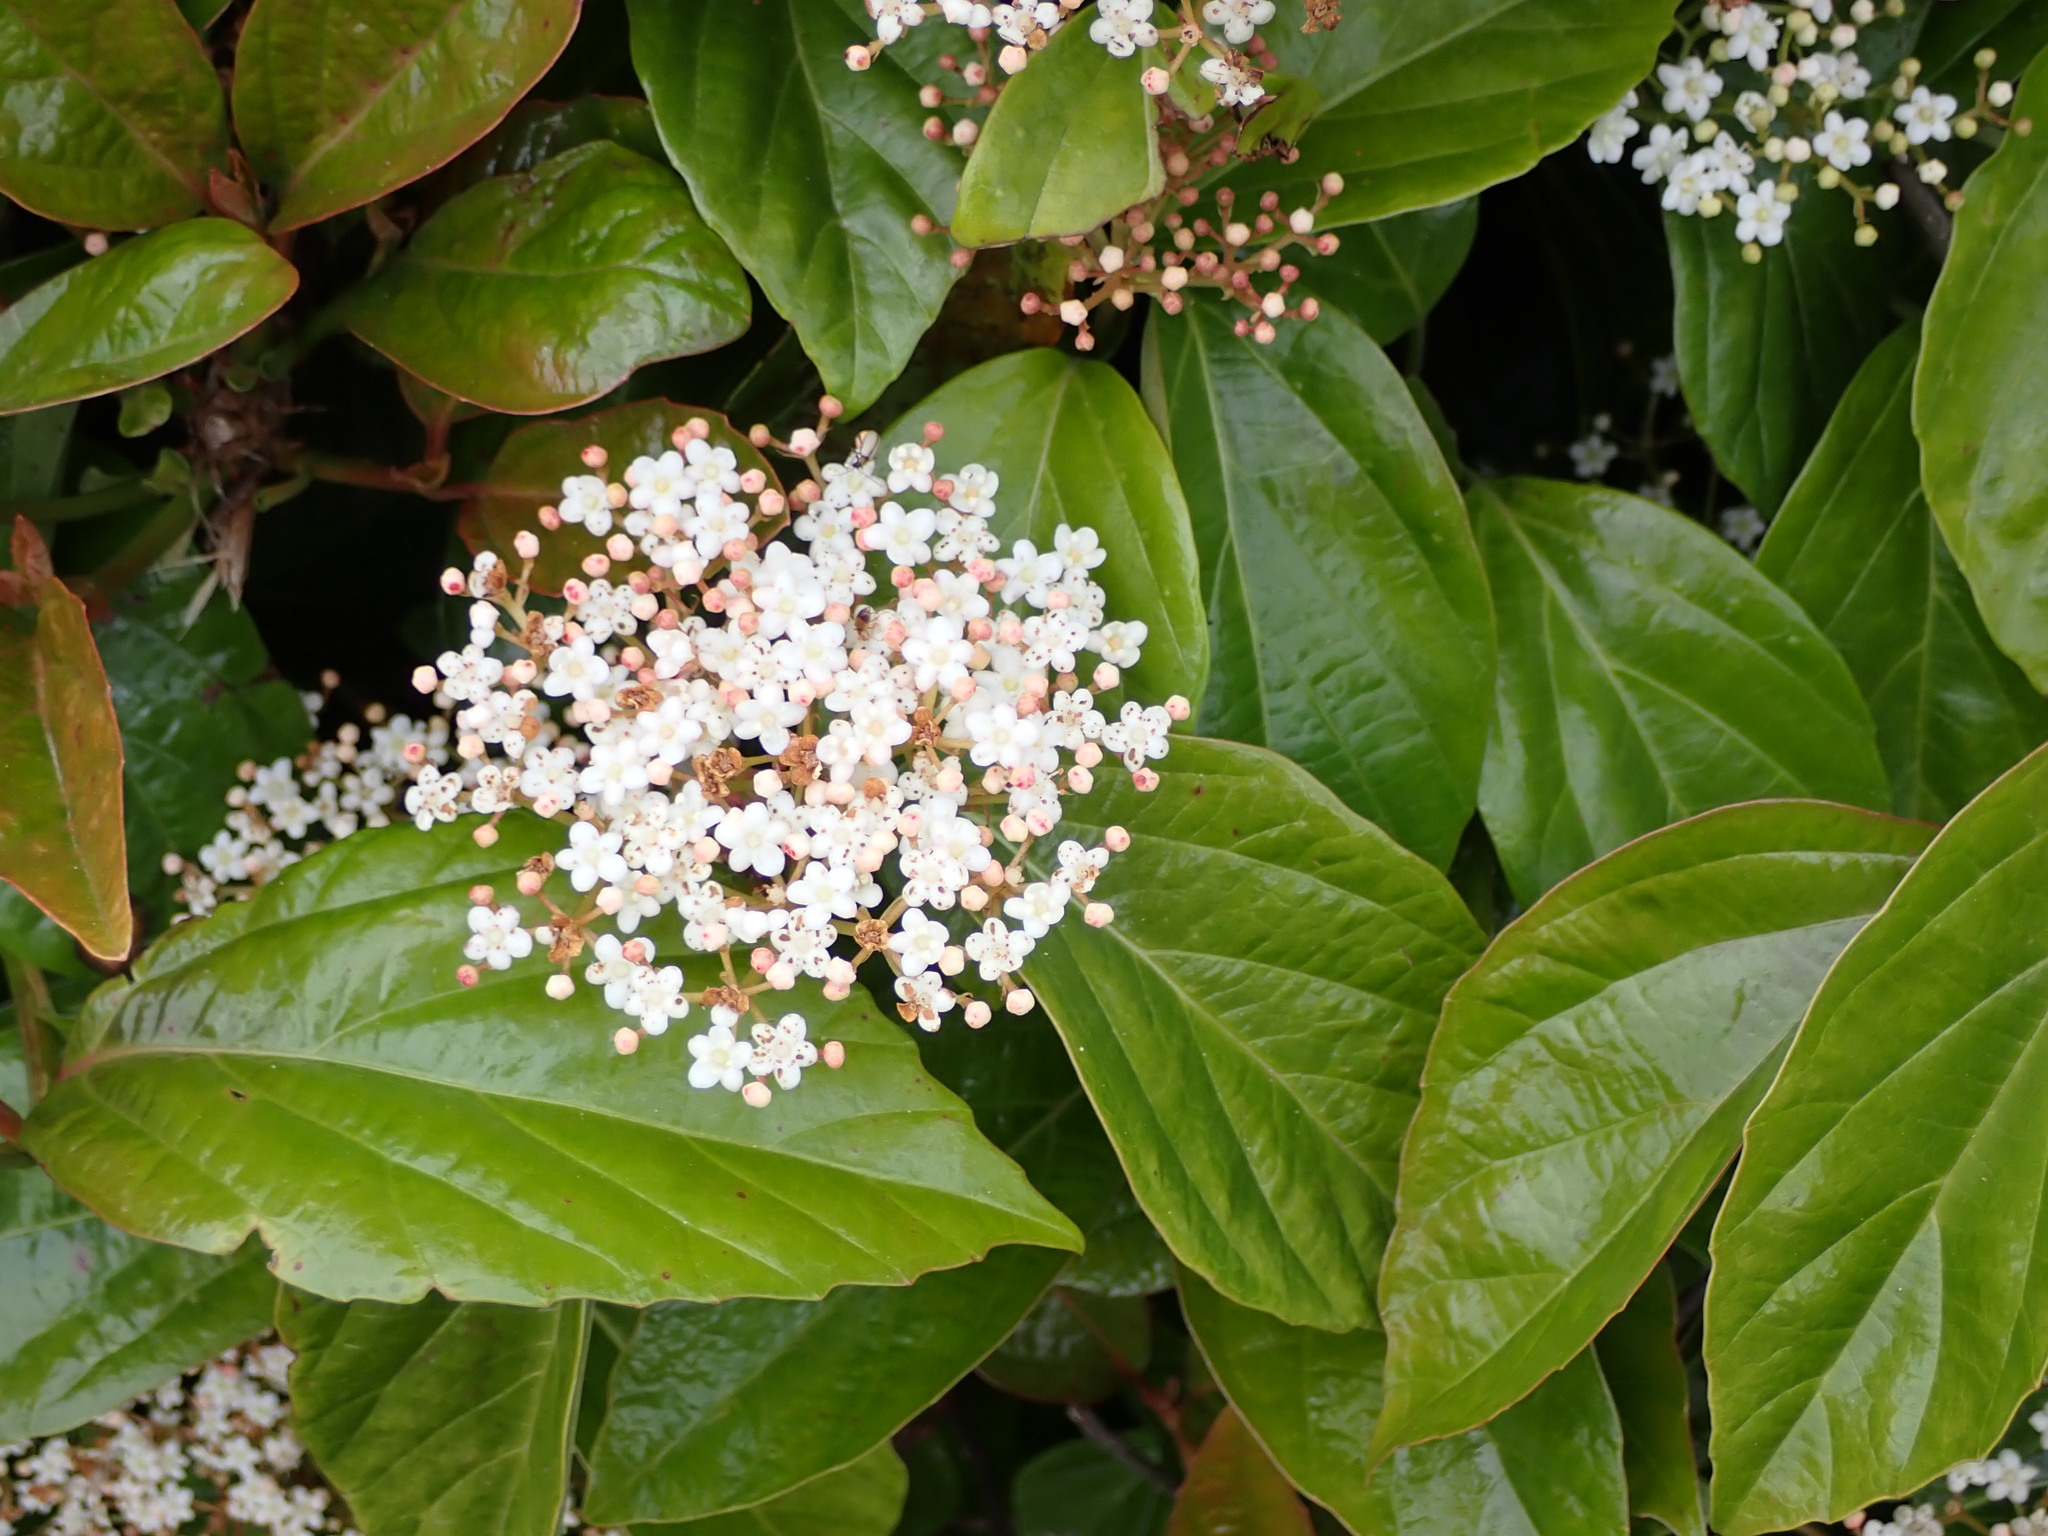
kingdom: Plantae
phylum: Tracheophyta
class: Magnoliopsida
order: Dipsacales
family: Viburnaceae
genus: Viburnum
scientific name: Viburnum japonicum
